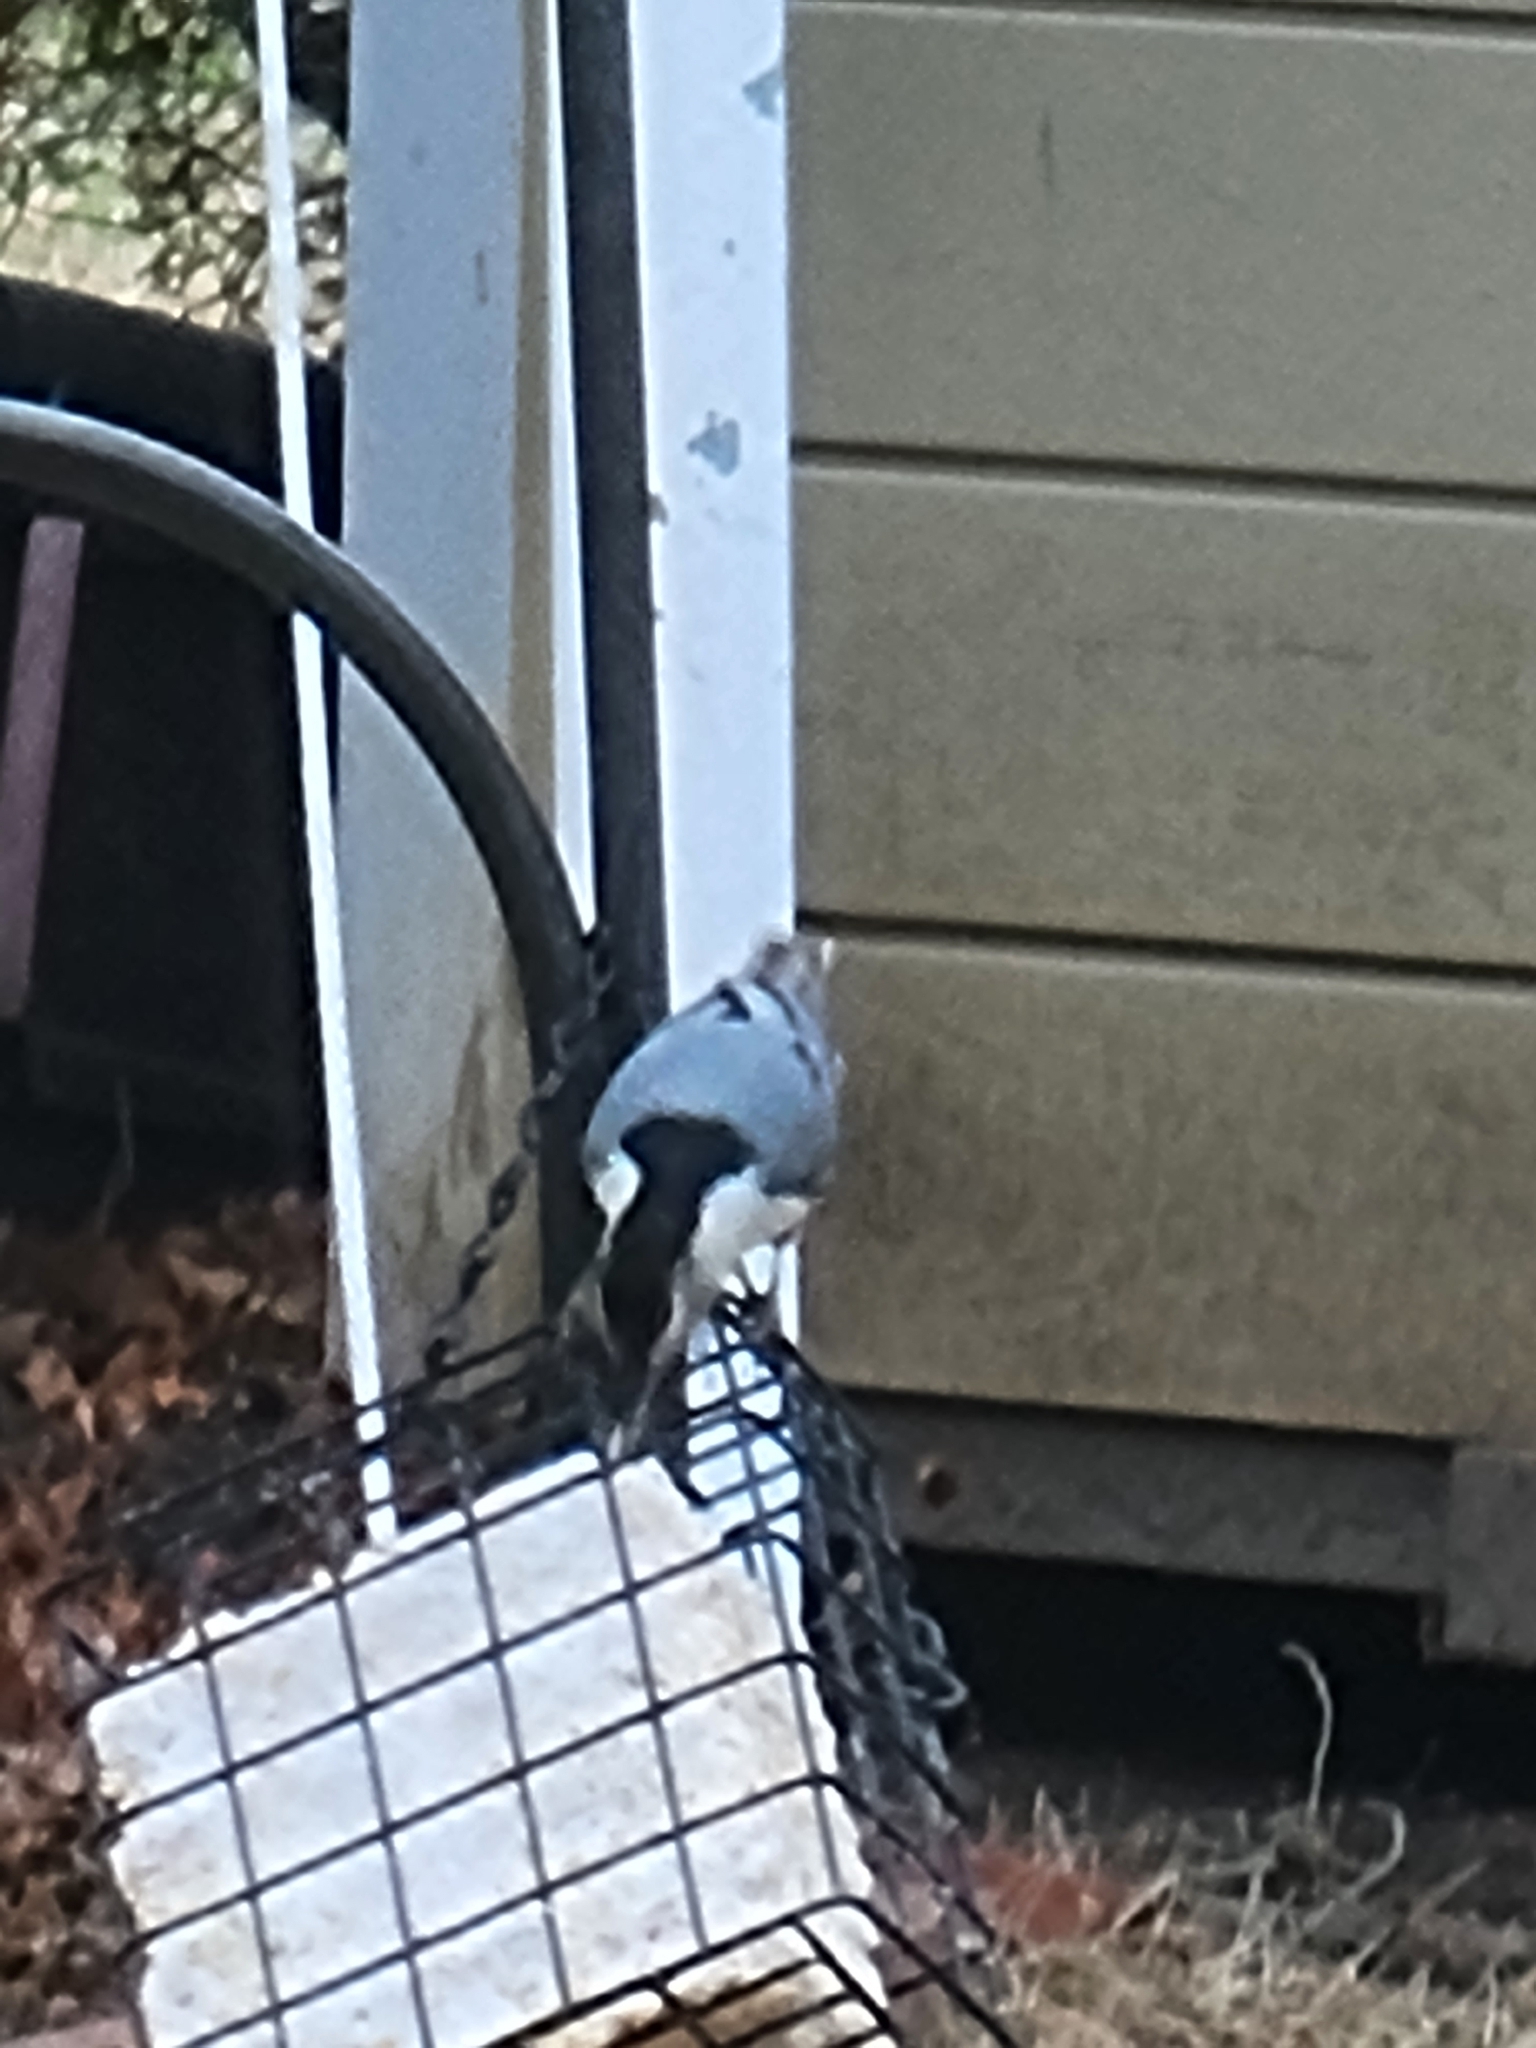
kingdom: Animalia
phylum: Chordata
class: Aves
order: Passeriformes
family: Sittidae
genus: Sitta
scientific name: Sitta carolinensis
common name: White-breasted nuthatch
